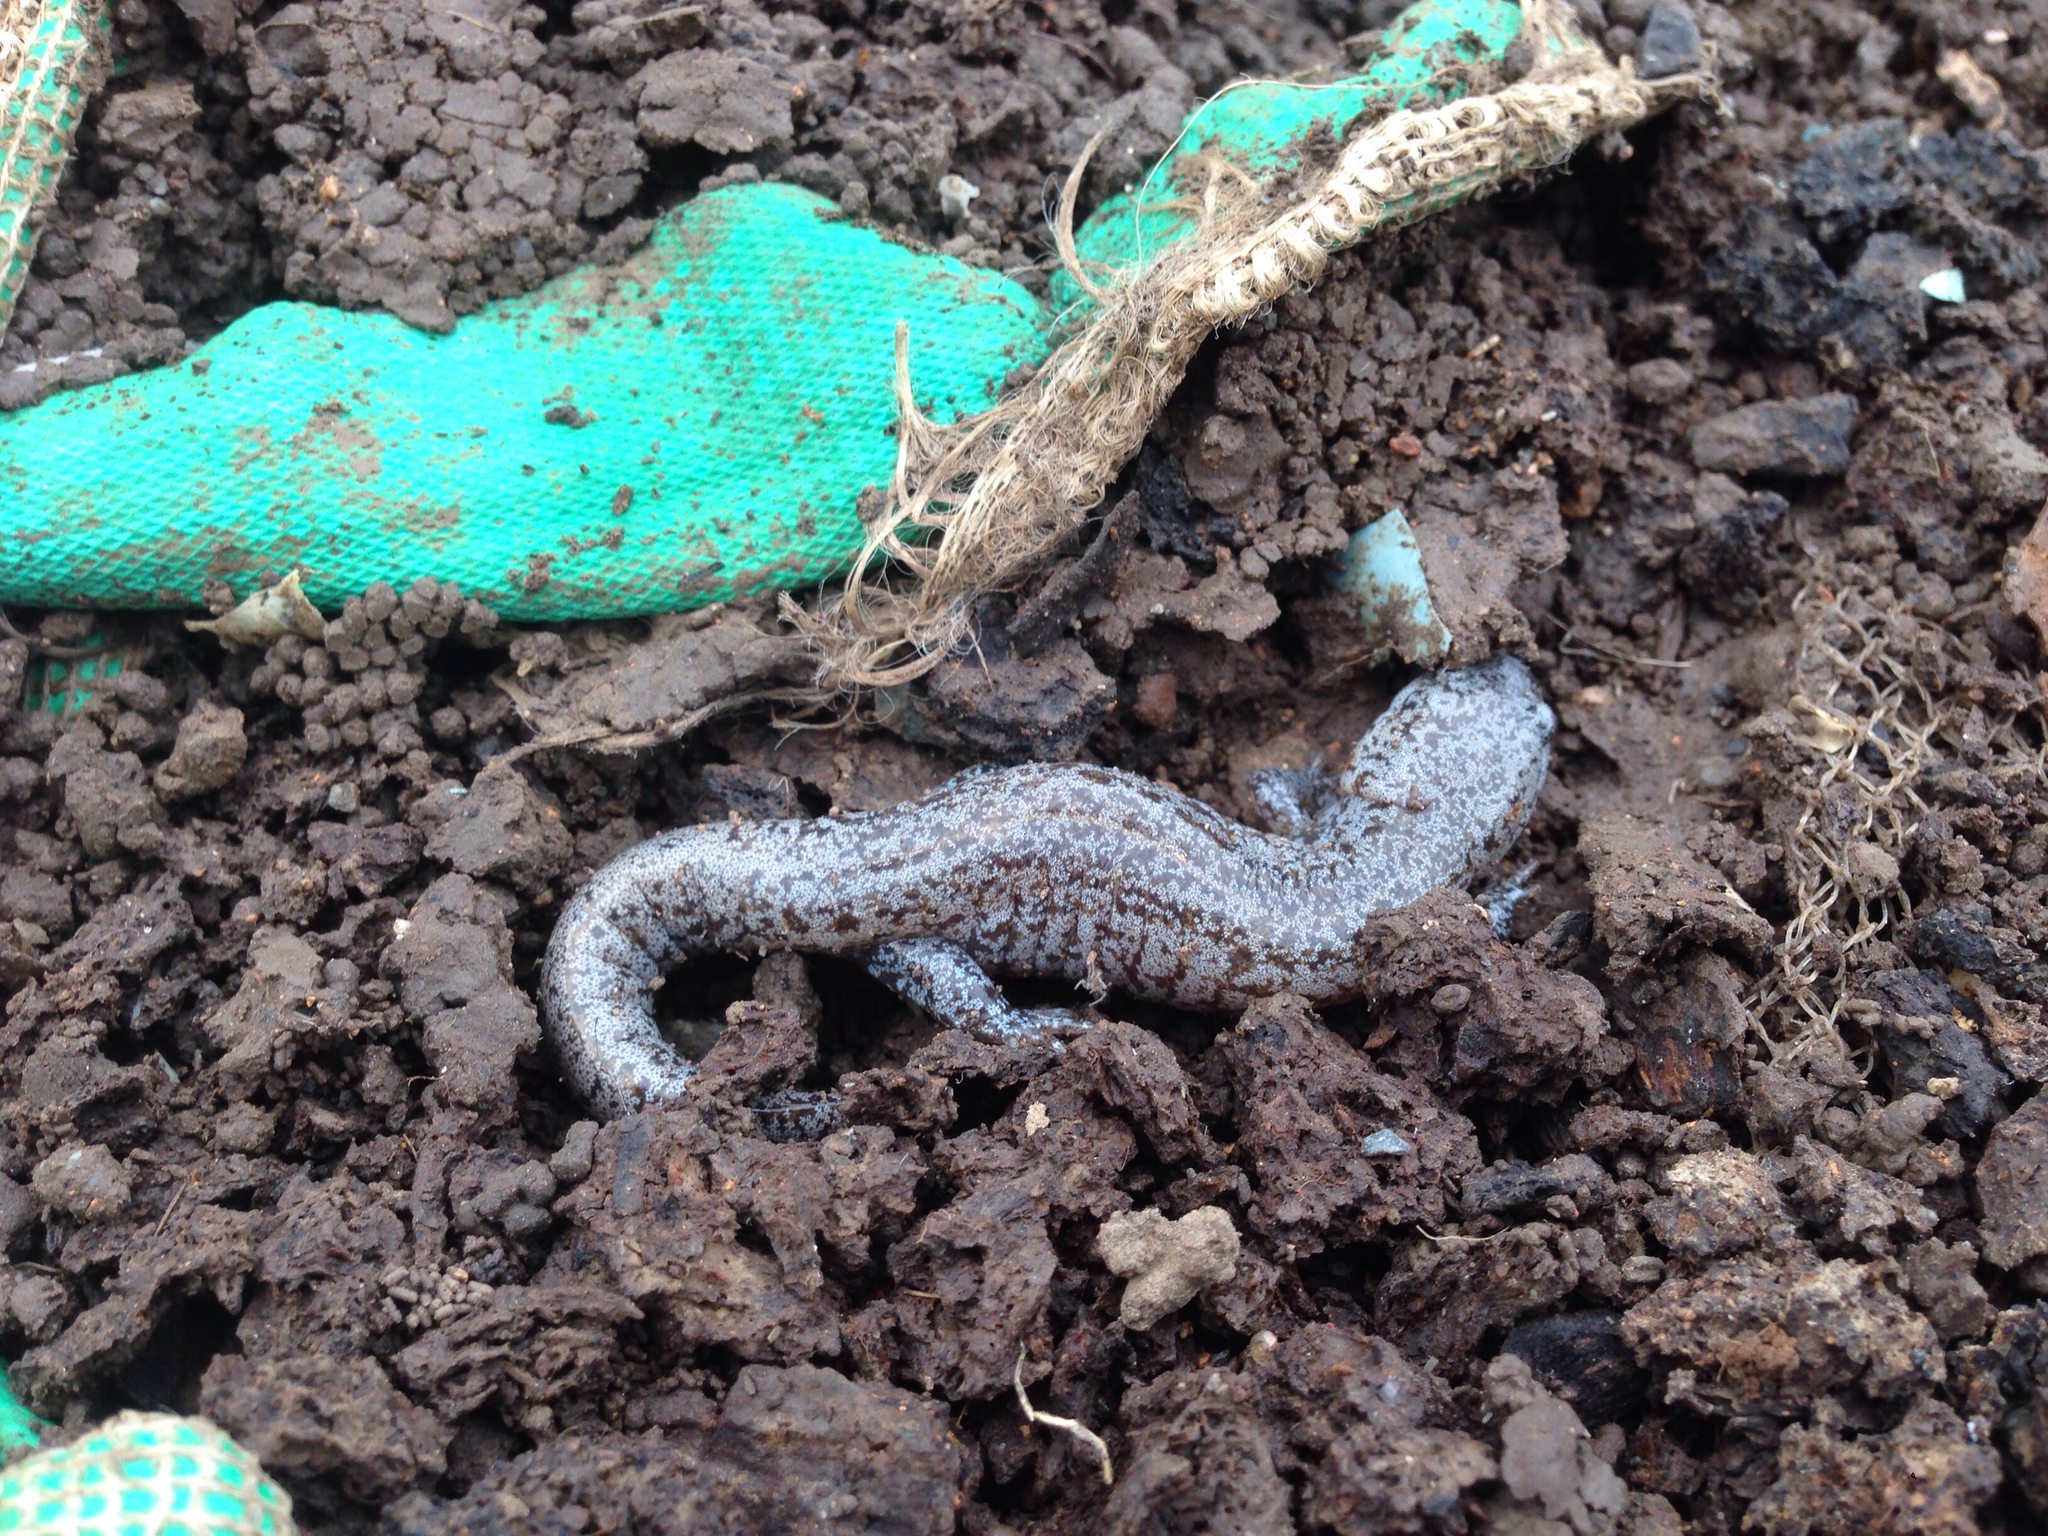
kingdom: Animalia
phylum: Chordata
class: Amphibia
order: Caudata
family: Hynobiidae
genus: Hynobius
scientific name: Hynobius quelpaertensis
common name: Cheju salamander
